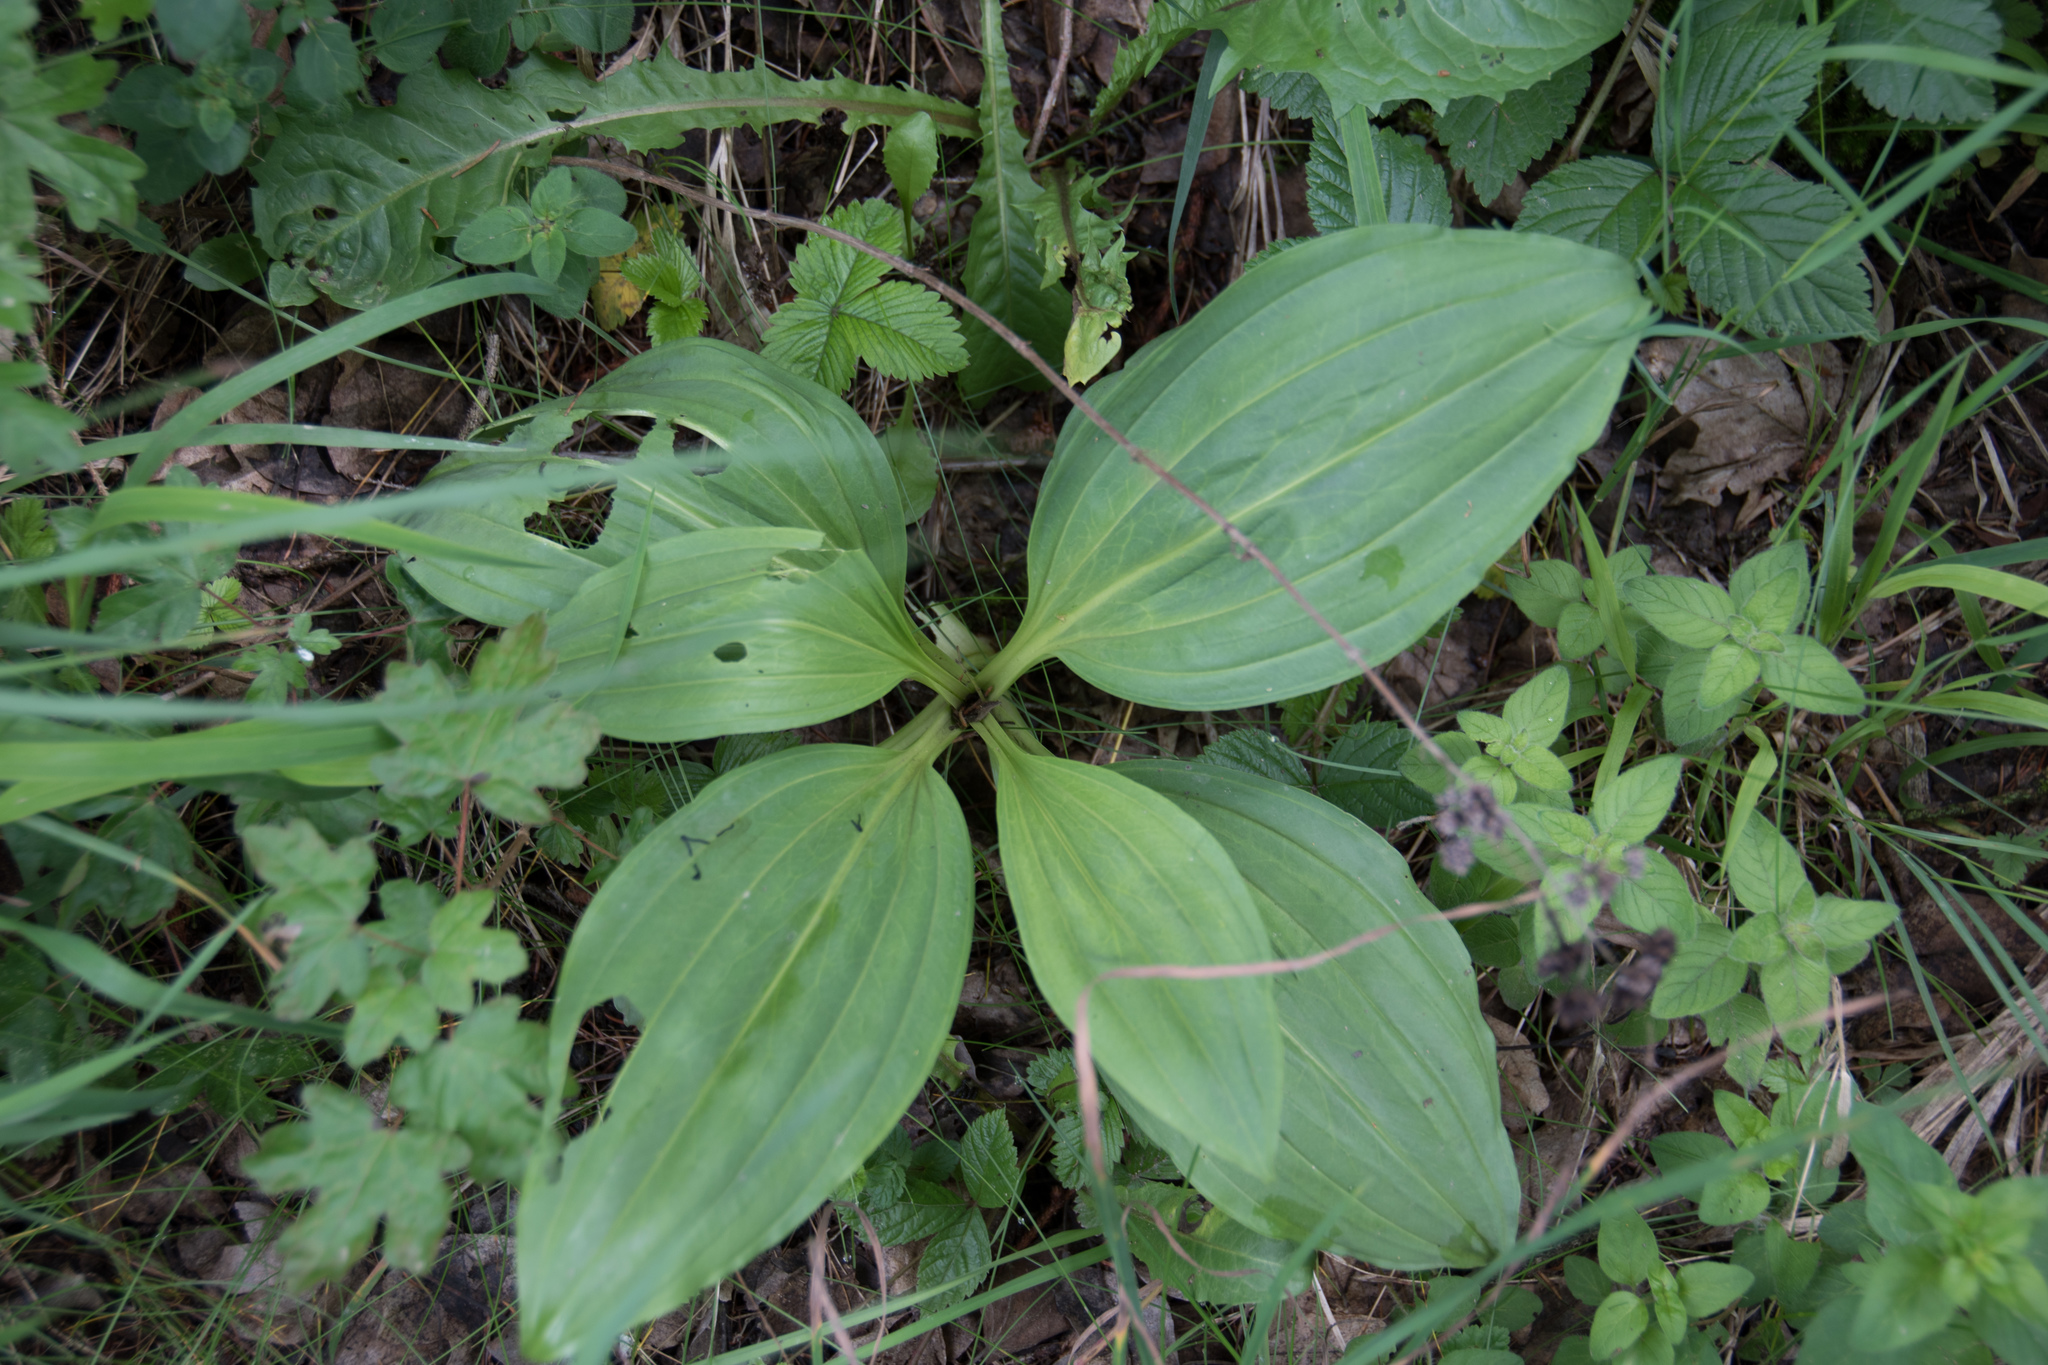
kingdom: Plantae
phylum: Tracheophyta
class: Magnoliopsida
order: Gentianales
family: Gentianaceae
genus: Gentiana
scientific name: Gentiana lutea
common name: Great yellow gentian
